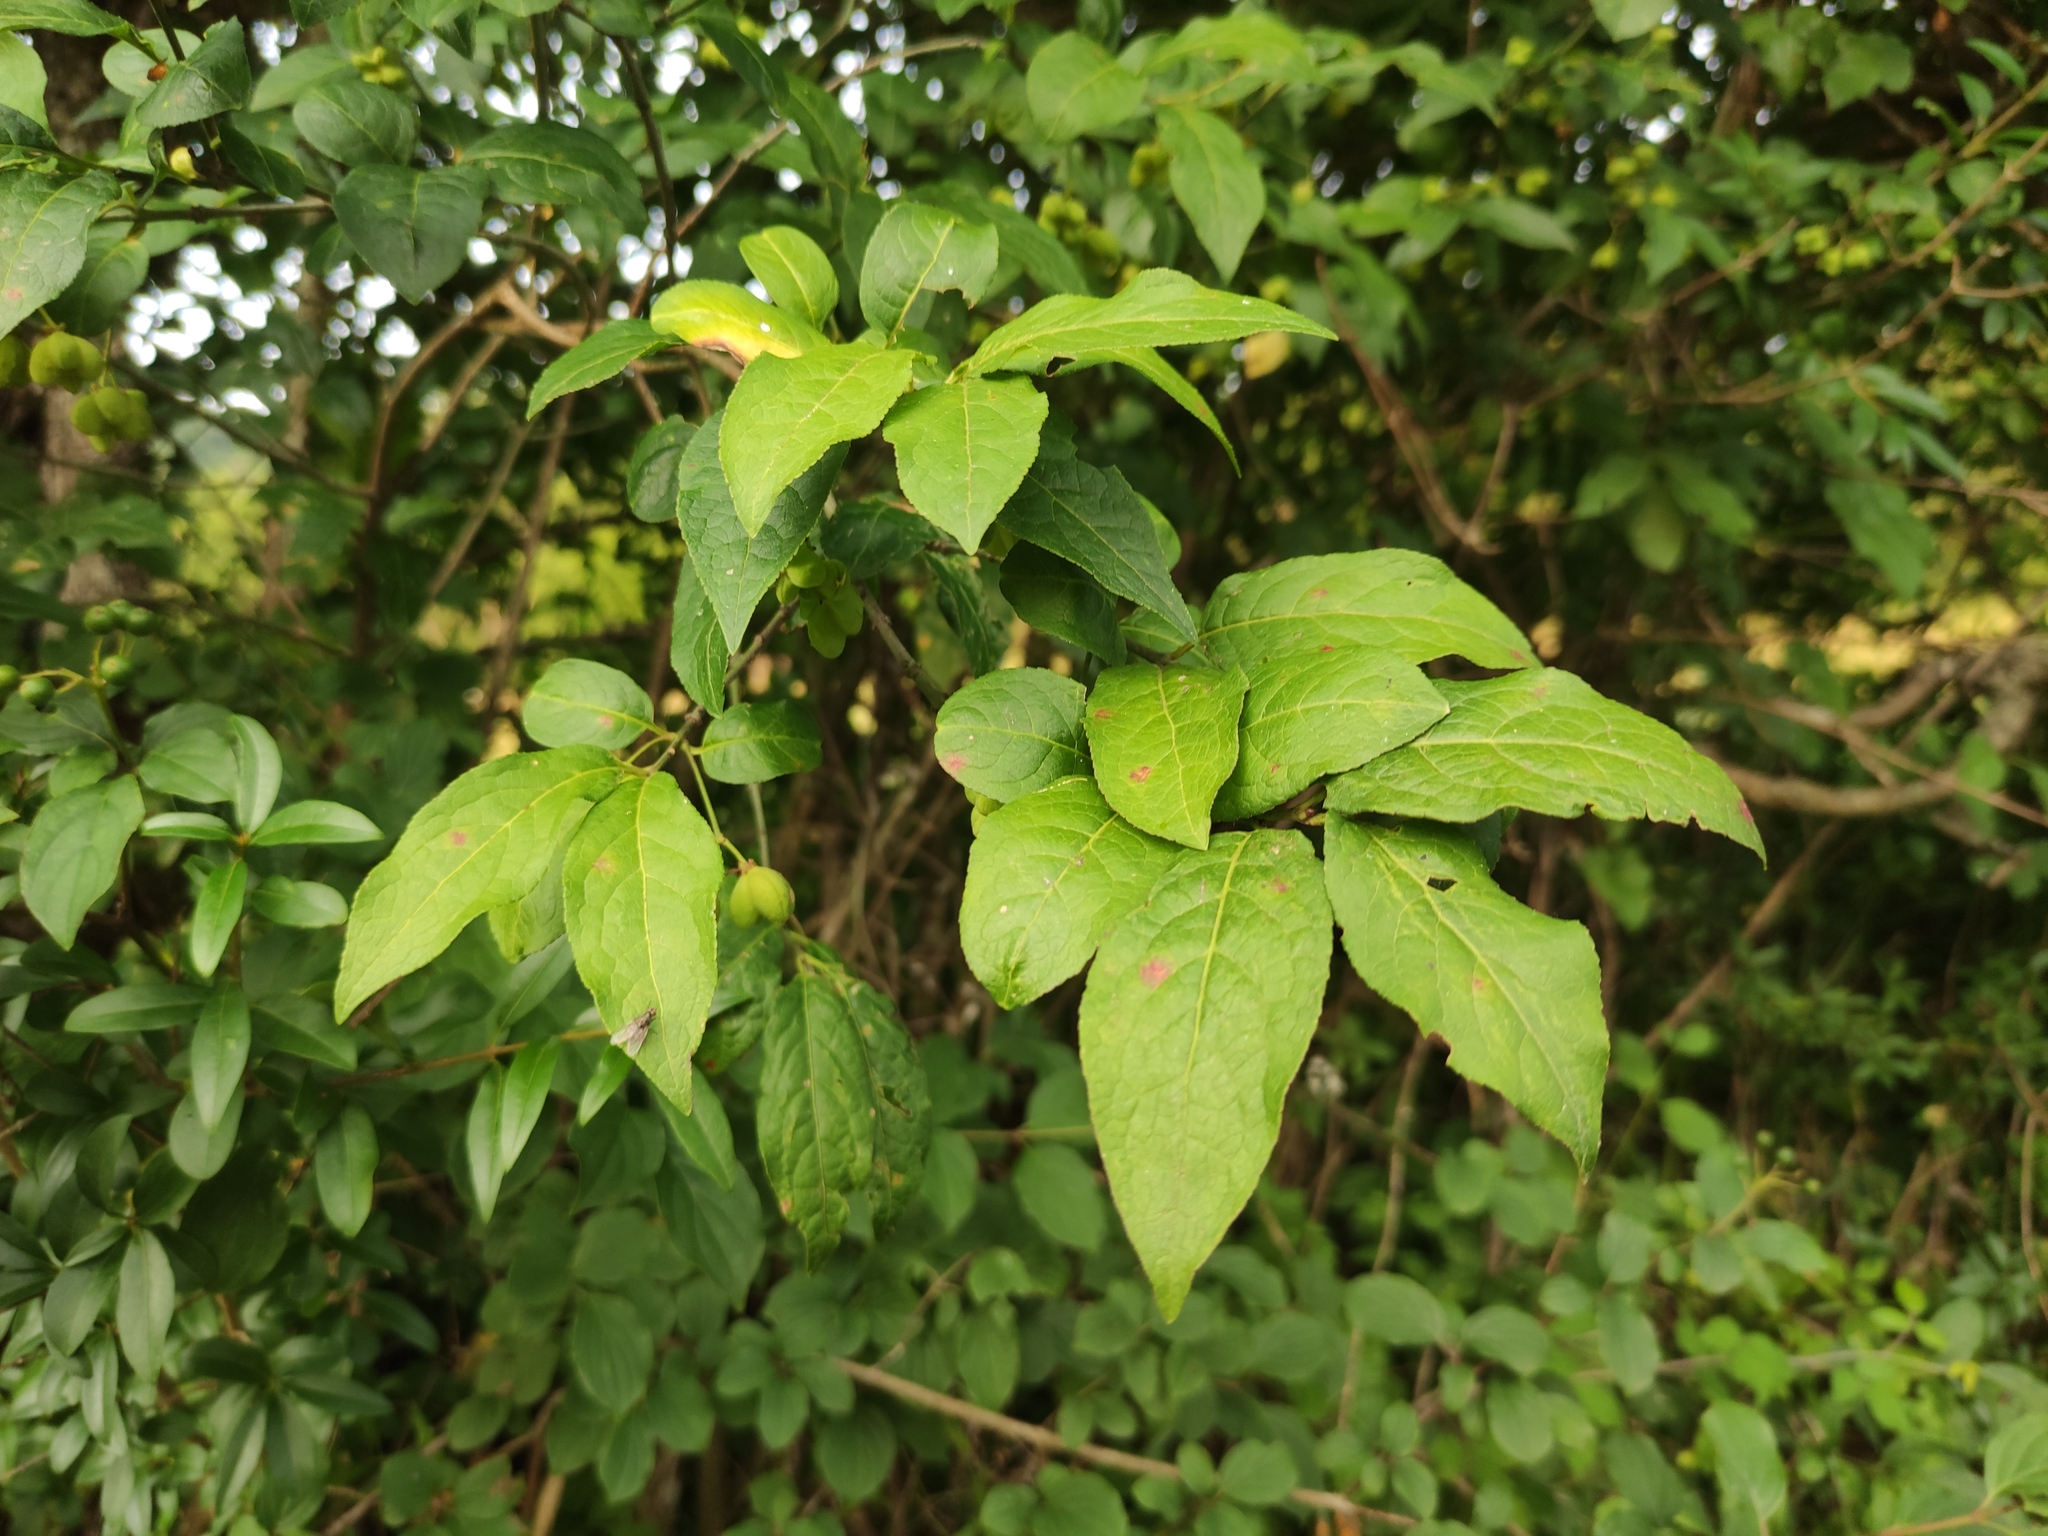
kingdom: Plantae
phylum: Tracheophyta
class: Magnoliopsida
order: Celastrales
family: Celastraceae
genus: Euonymus
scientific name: Euonymus europaeus
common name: Spindle
